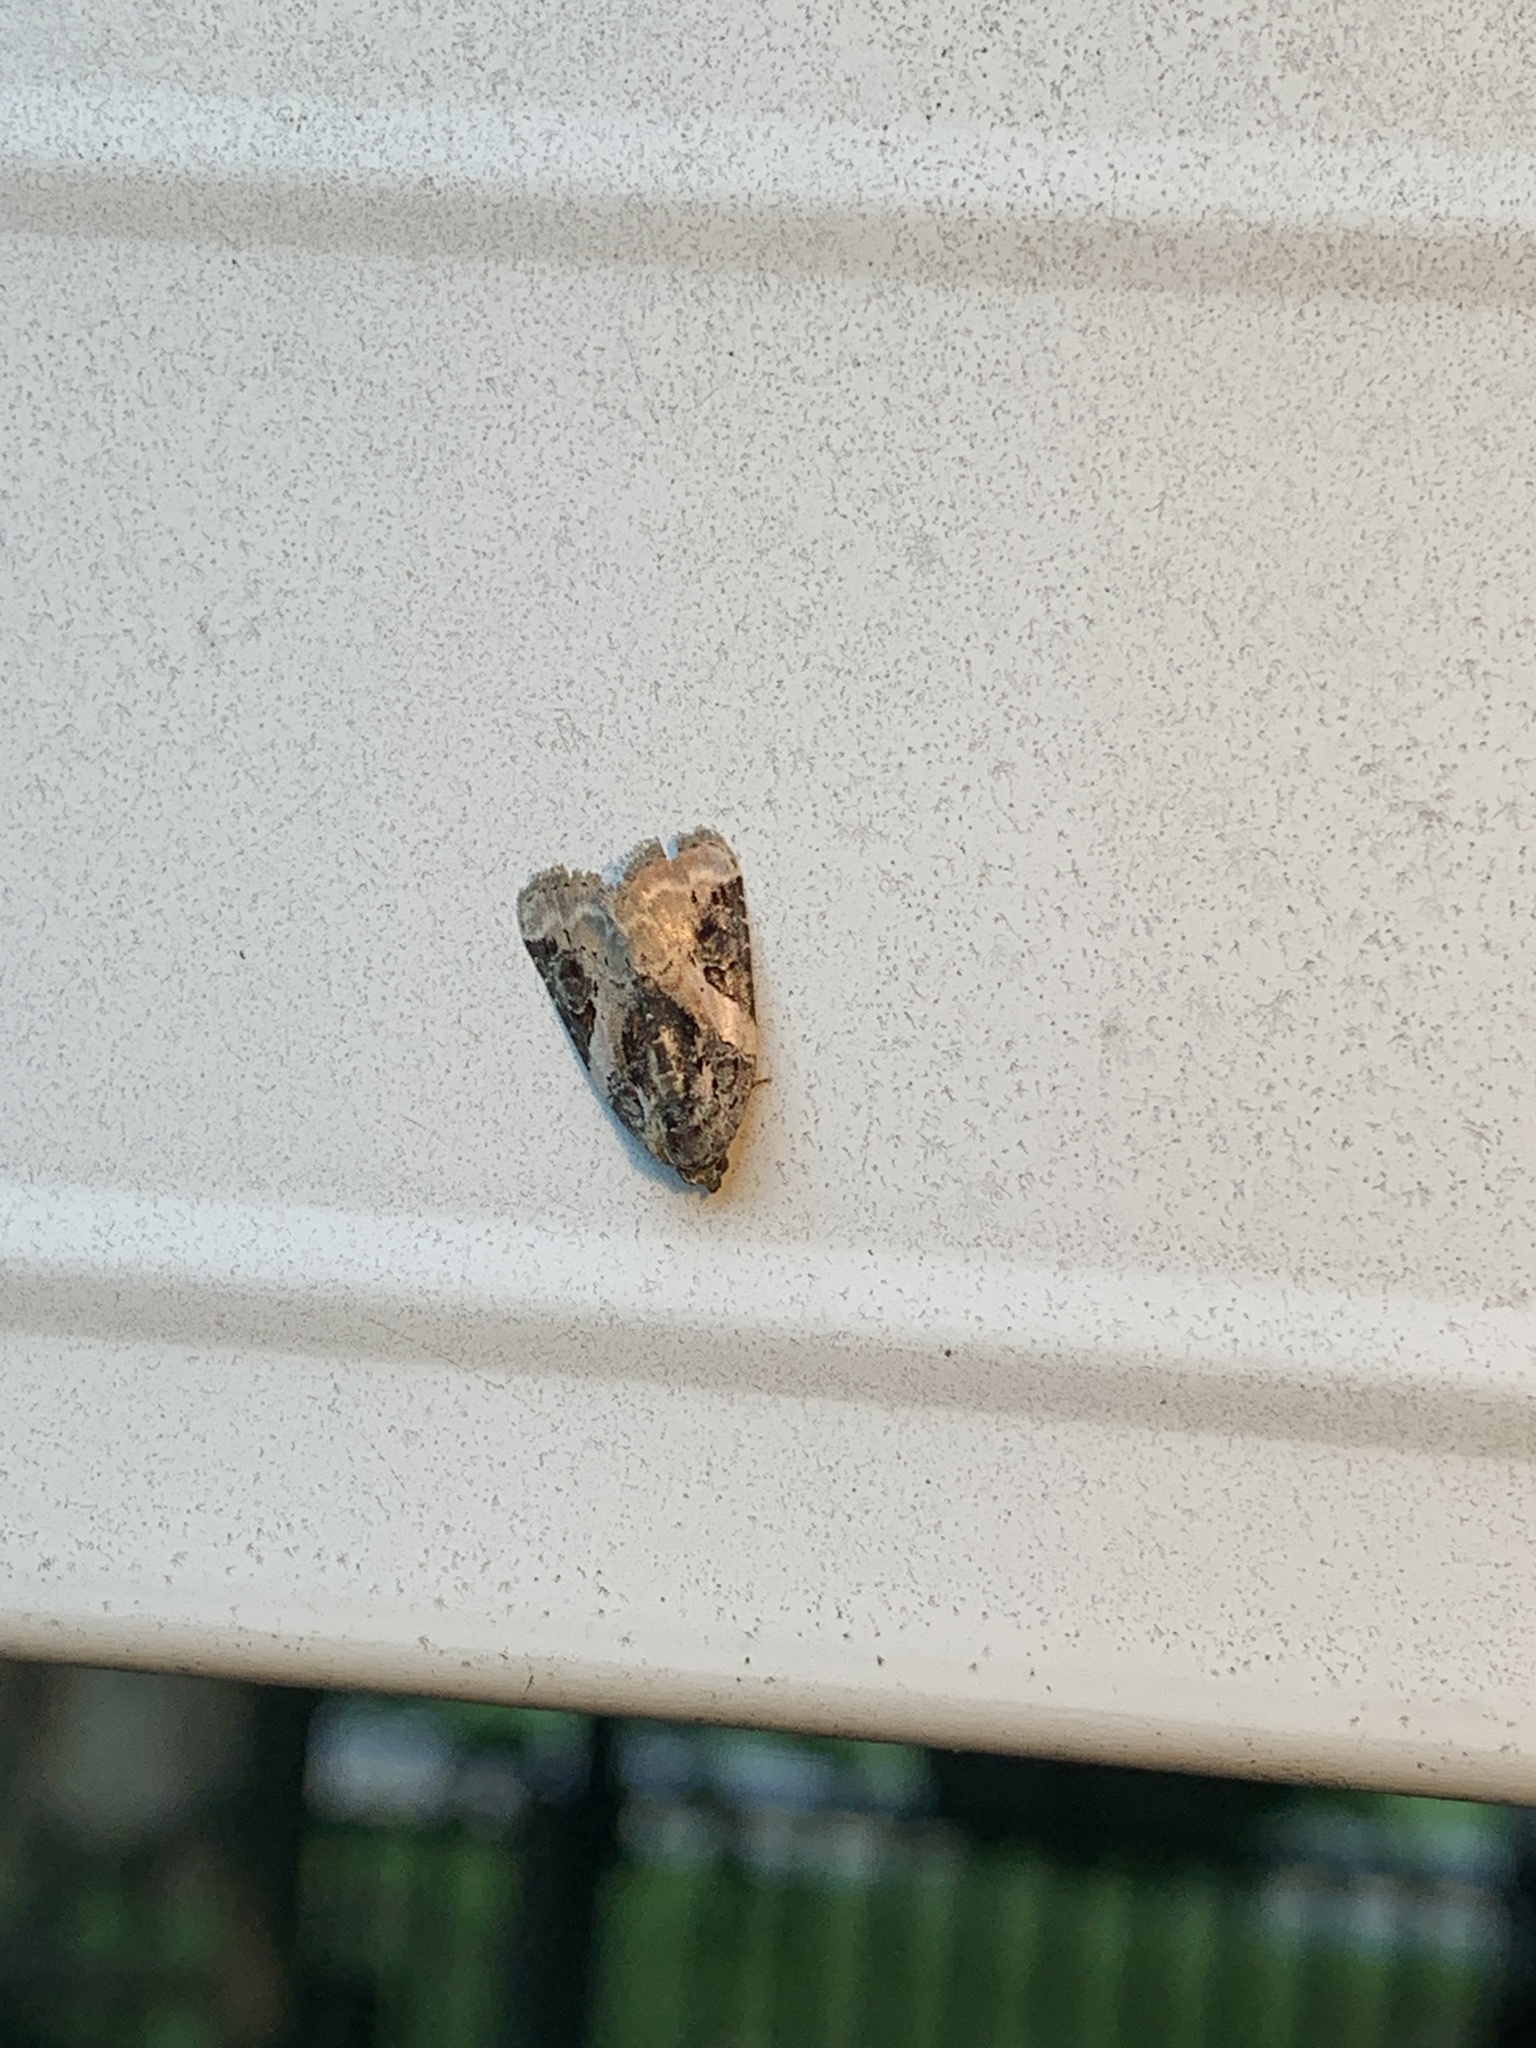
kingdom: Animalia
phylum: Arthropoda
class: Insecta
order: Lepidoptera
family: Noctuidae
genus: Pseudeustrotia
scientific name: Pseudeustrotia carneola
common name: Pink-barred lithacodia moth
